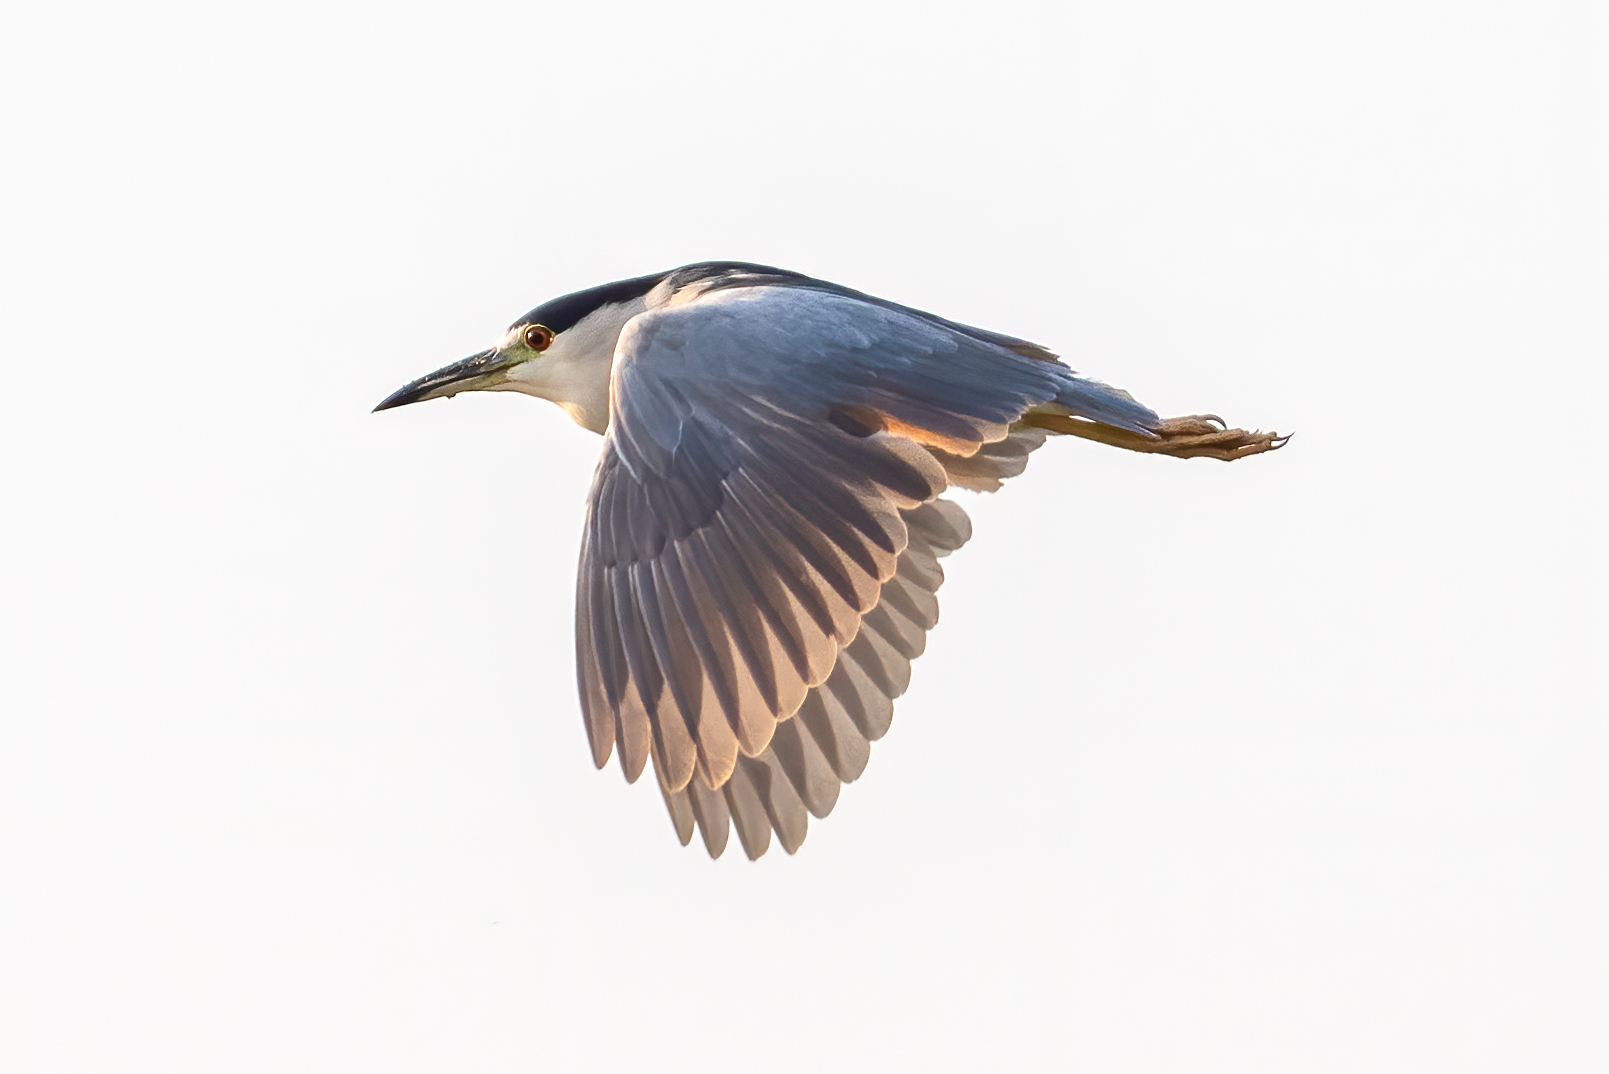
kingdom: Animalia
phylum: Chordata
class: Aves
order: Pelecaniformes
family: Ardeidae
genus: Nycticorax
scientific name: Nycticorax nycticorax
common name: Black-crowned night heron
